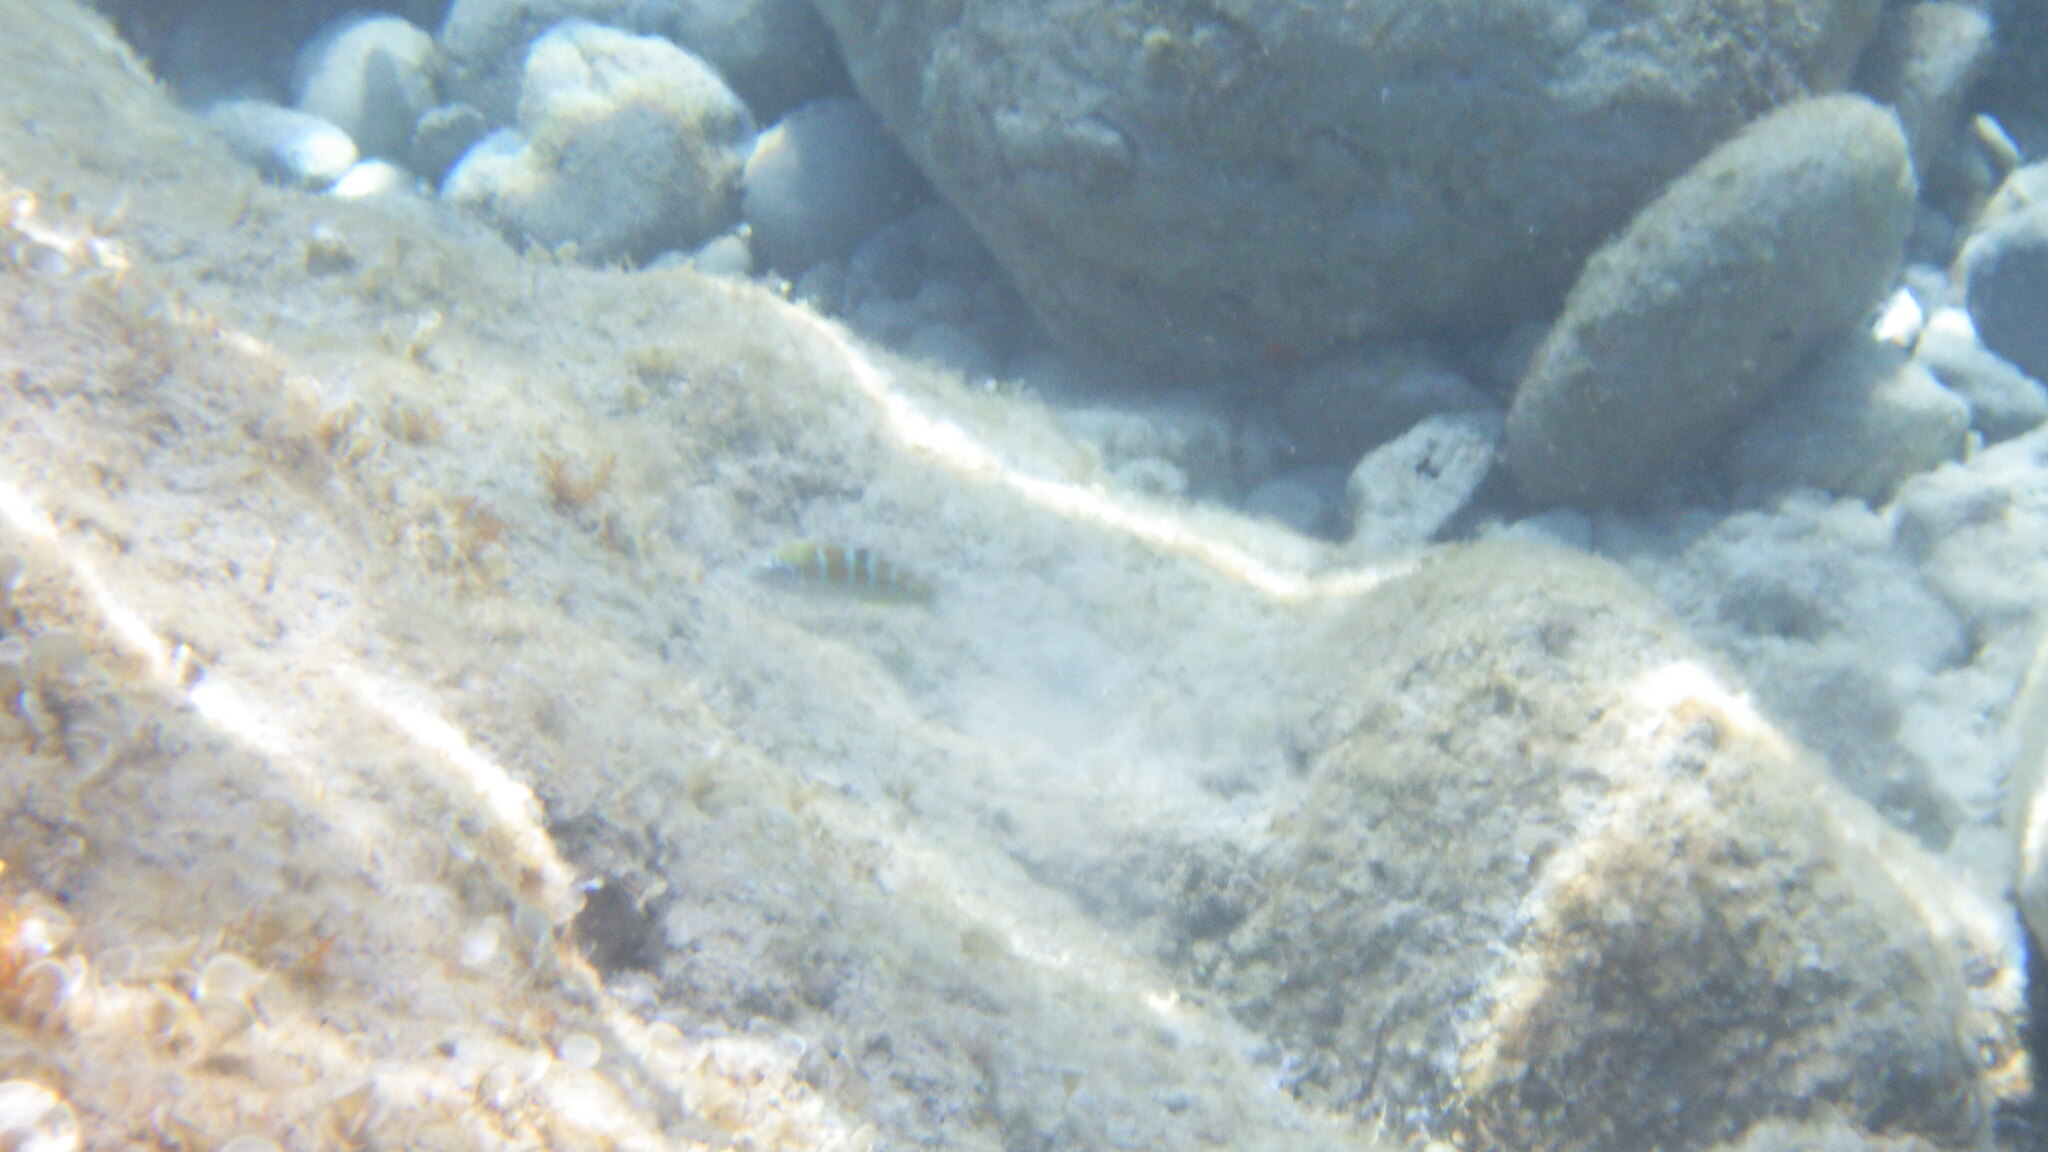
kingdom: Animalia
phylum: Chordata
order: Perciformes
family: Labridae
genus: Thalassoma
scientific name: Thalassoma pavo
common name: Ornate wrasse
